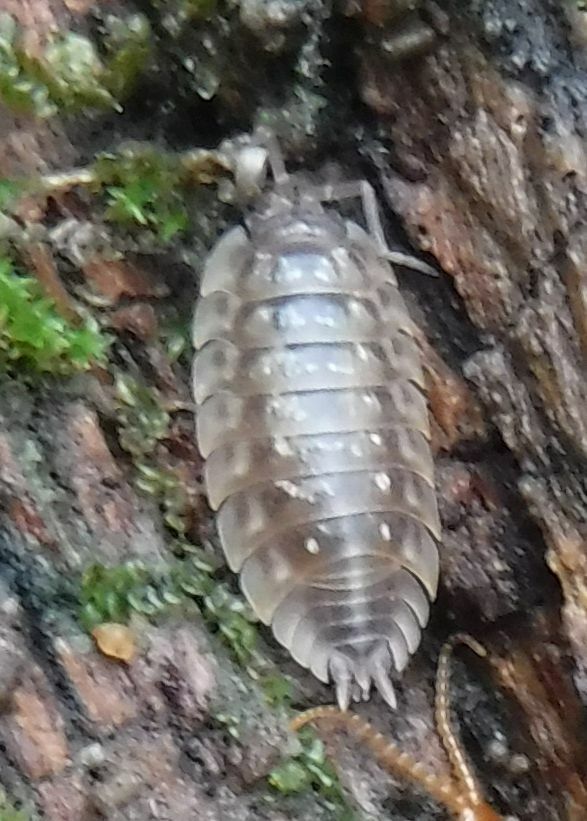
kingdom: Animalia
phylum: Arthropoda
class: Malacostraca
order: Isopoda
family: Oniscidae
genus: Oniscus
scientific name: Oniscus asellus
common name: Common shiny woodlouse
